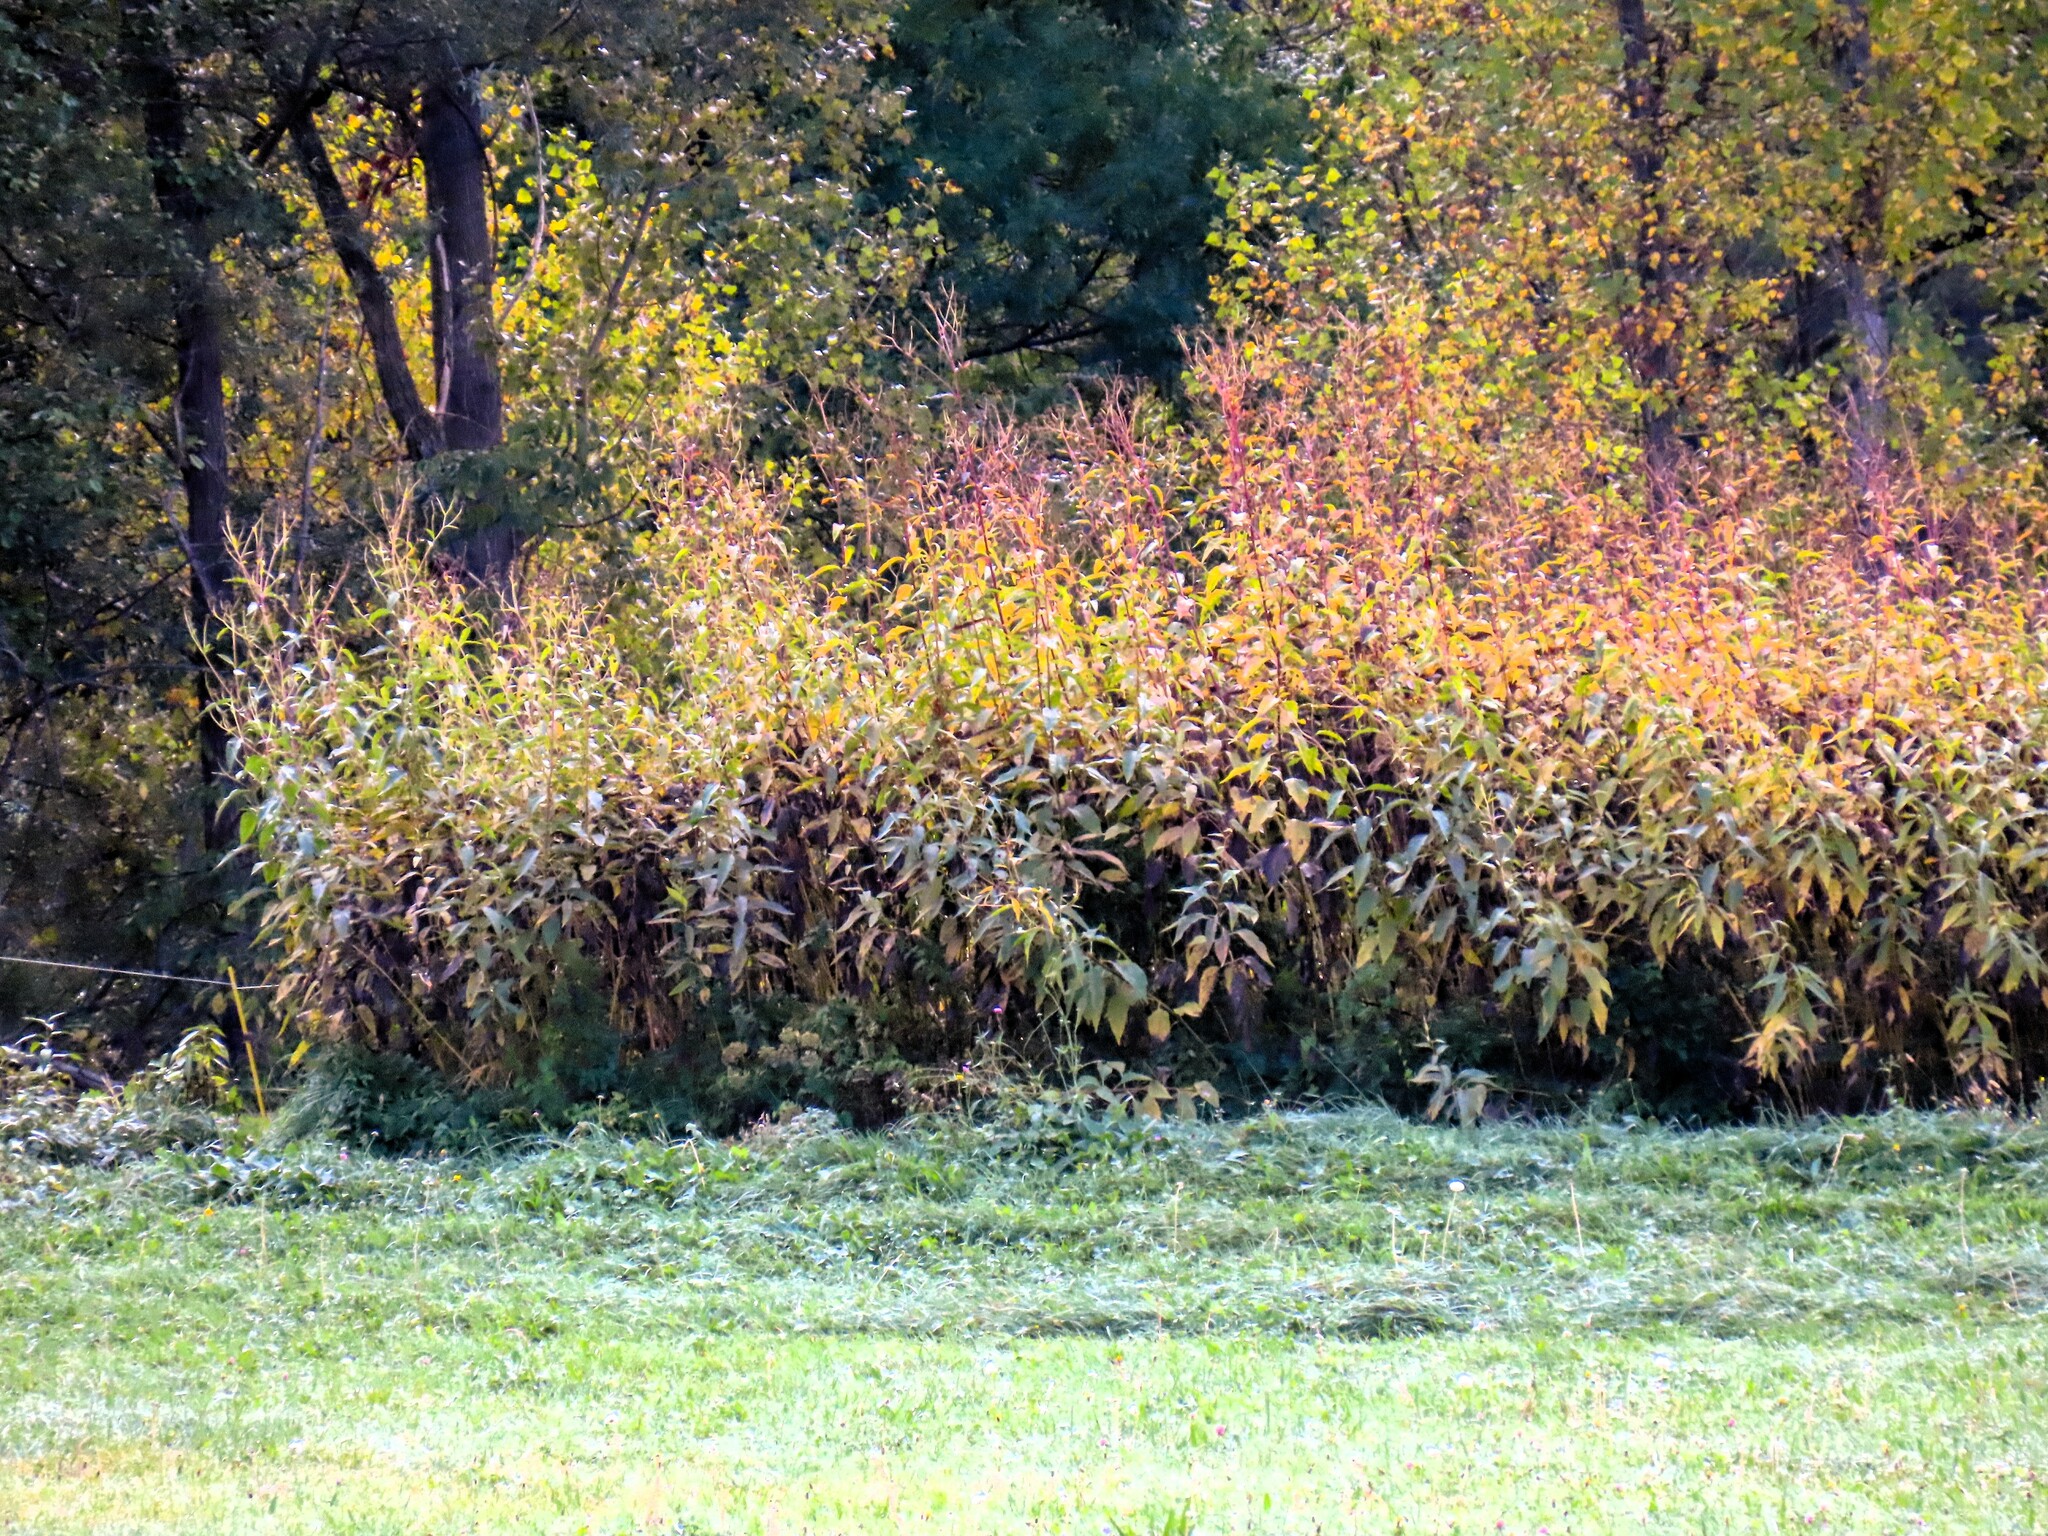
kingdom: Plantae
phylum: Tracheophyta
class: Magnoliopsida
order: Asterales
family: Asteraceae
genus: Helianthus
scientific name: Helianthus tuberosus
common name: Jerusalem artichoke
